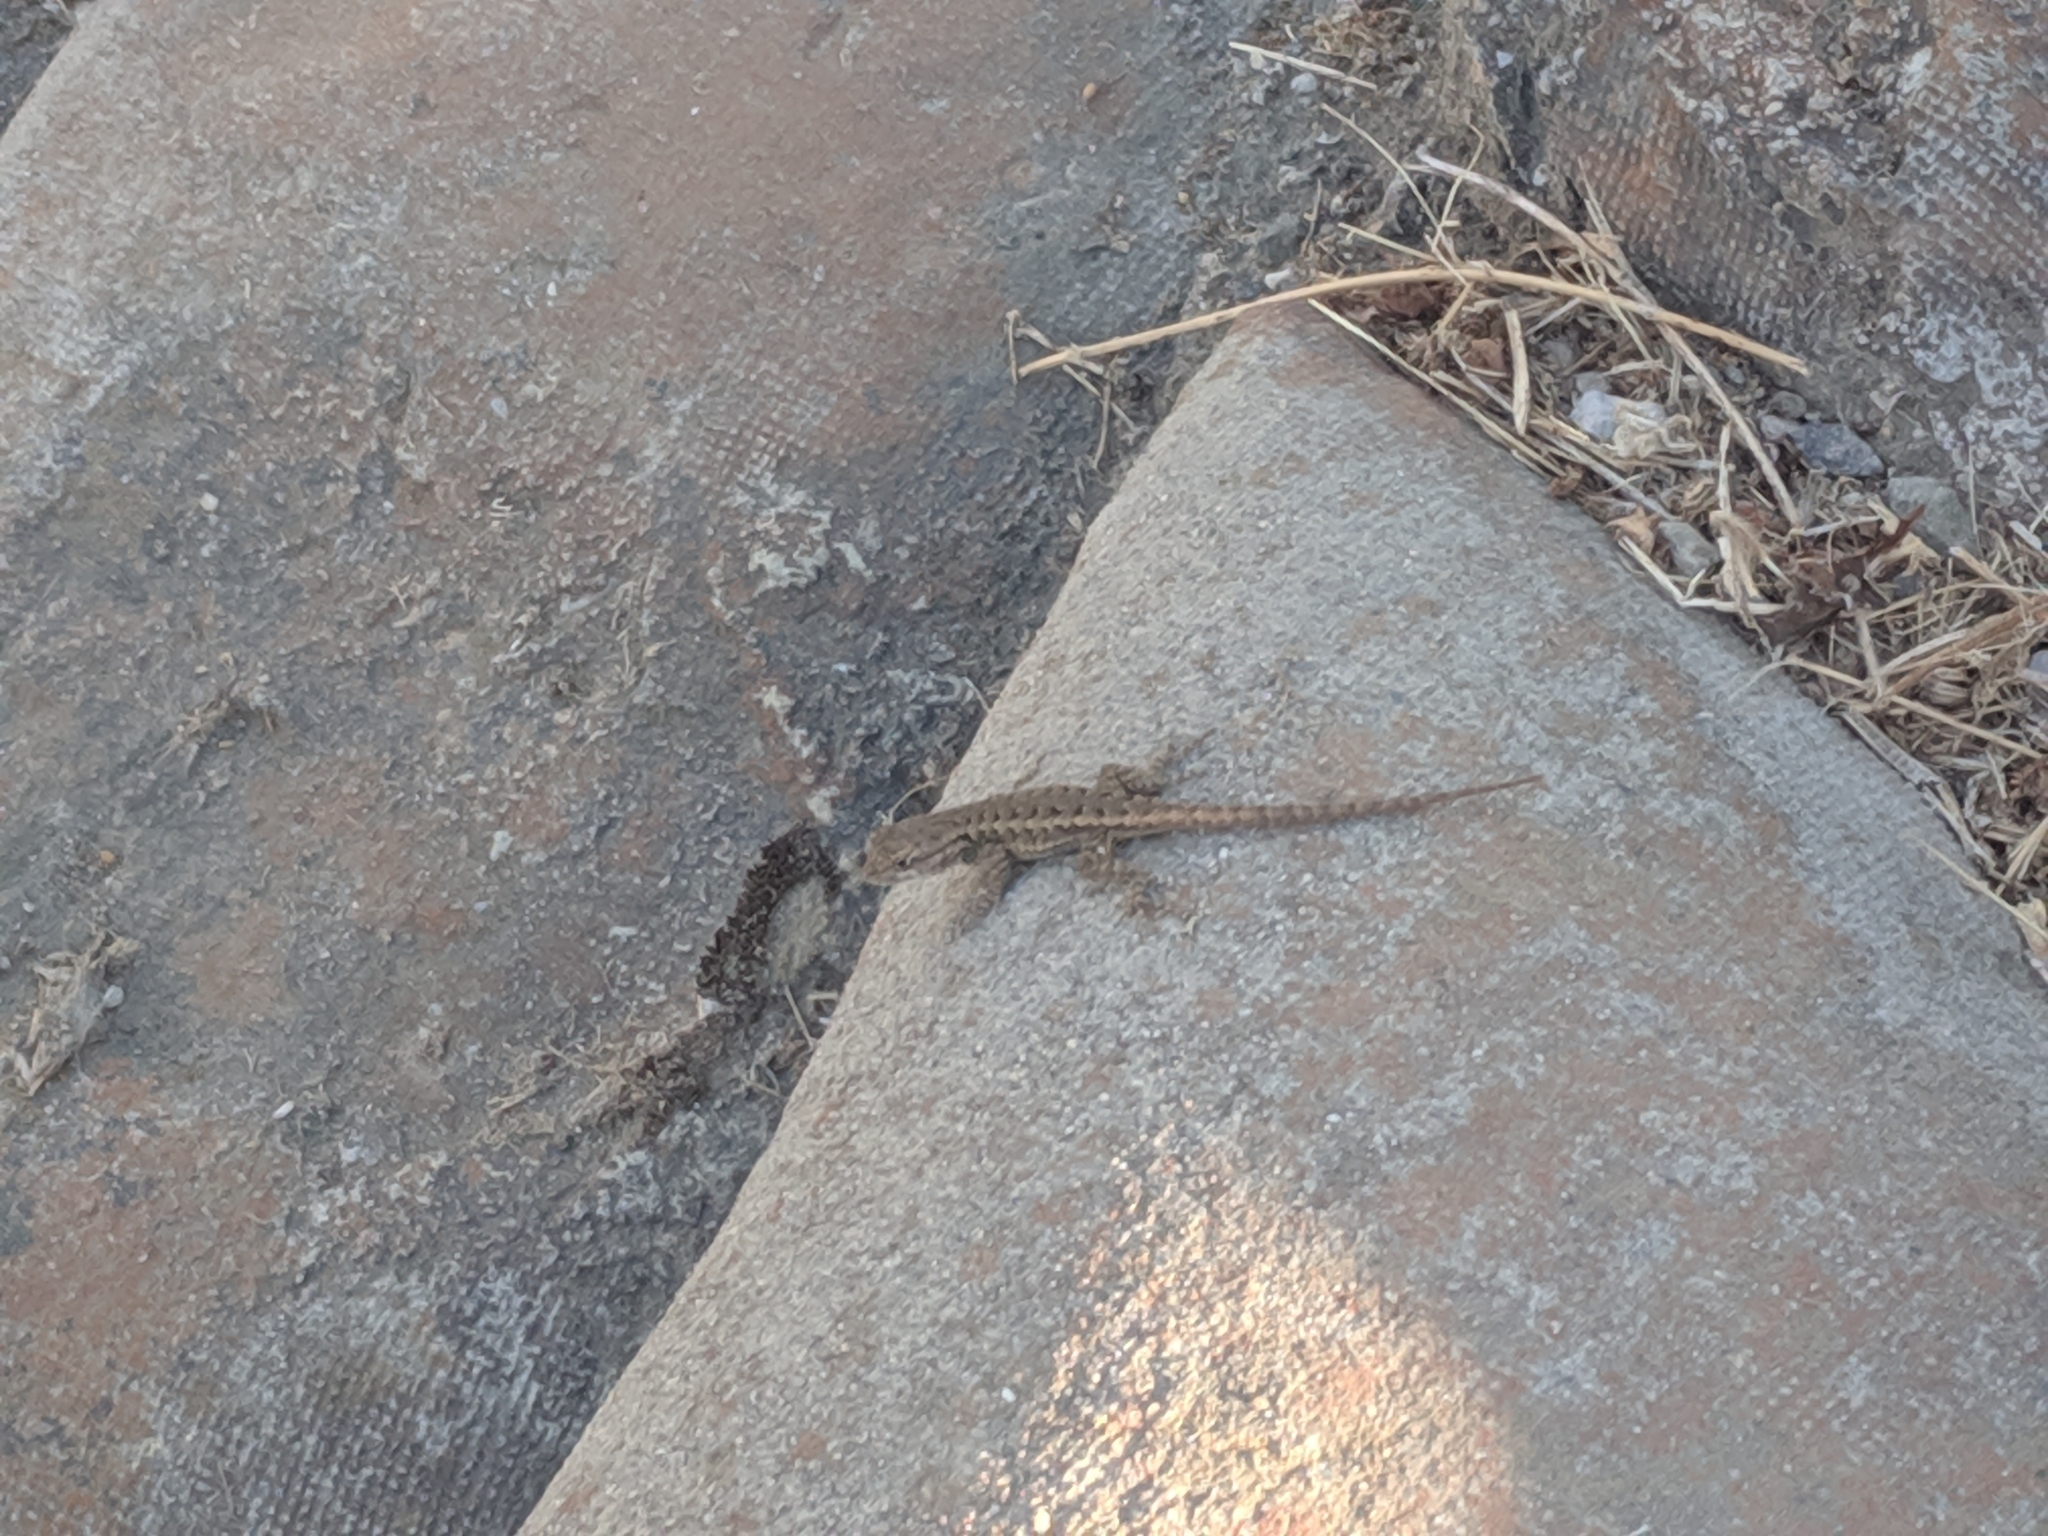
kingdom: Animalia
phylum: Chordata
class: Squamata
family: Phrynosomatidae
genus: Sceloporus
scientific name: Sceloporus occidentalis
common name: Western fence lizard
